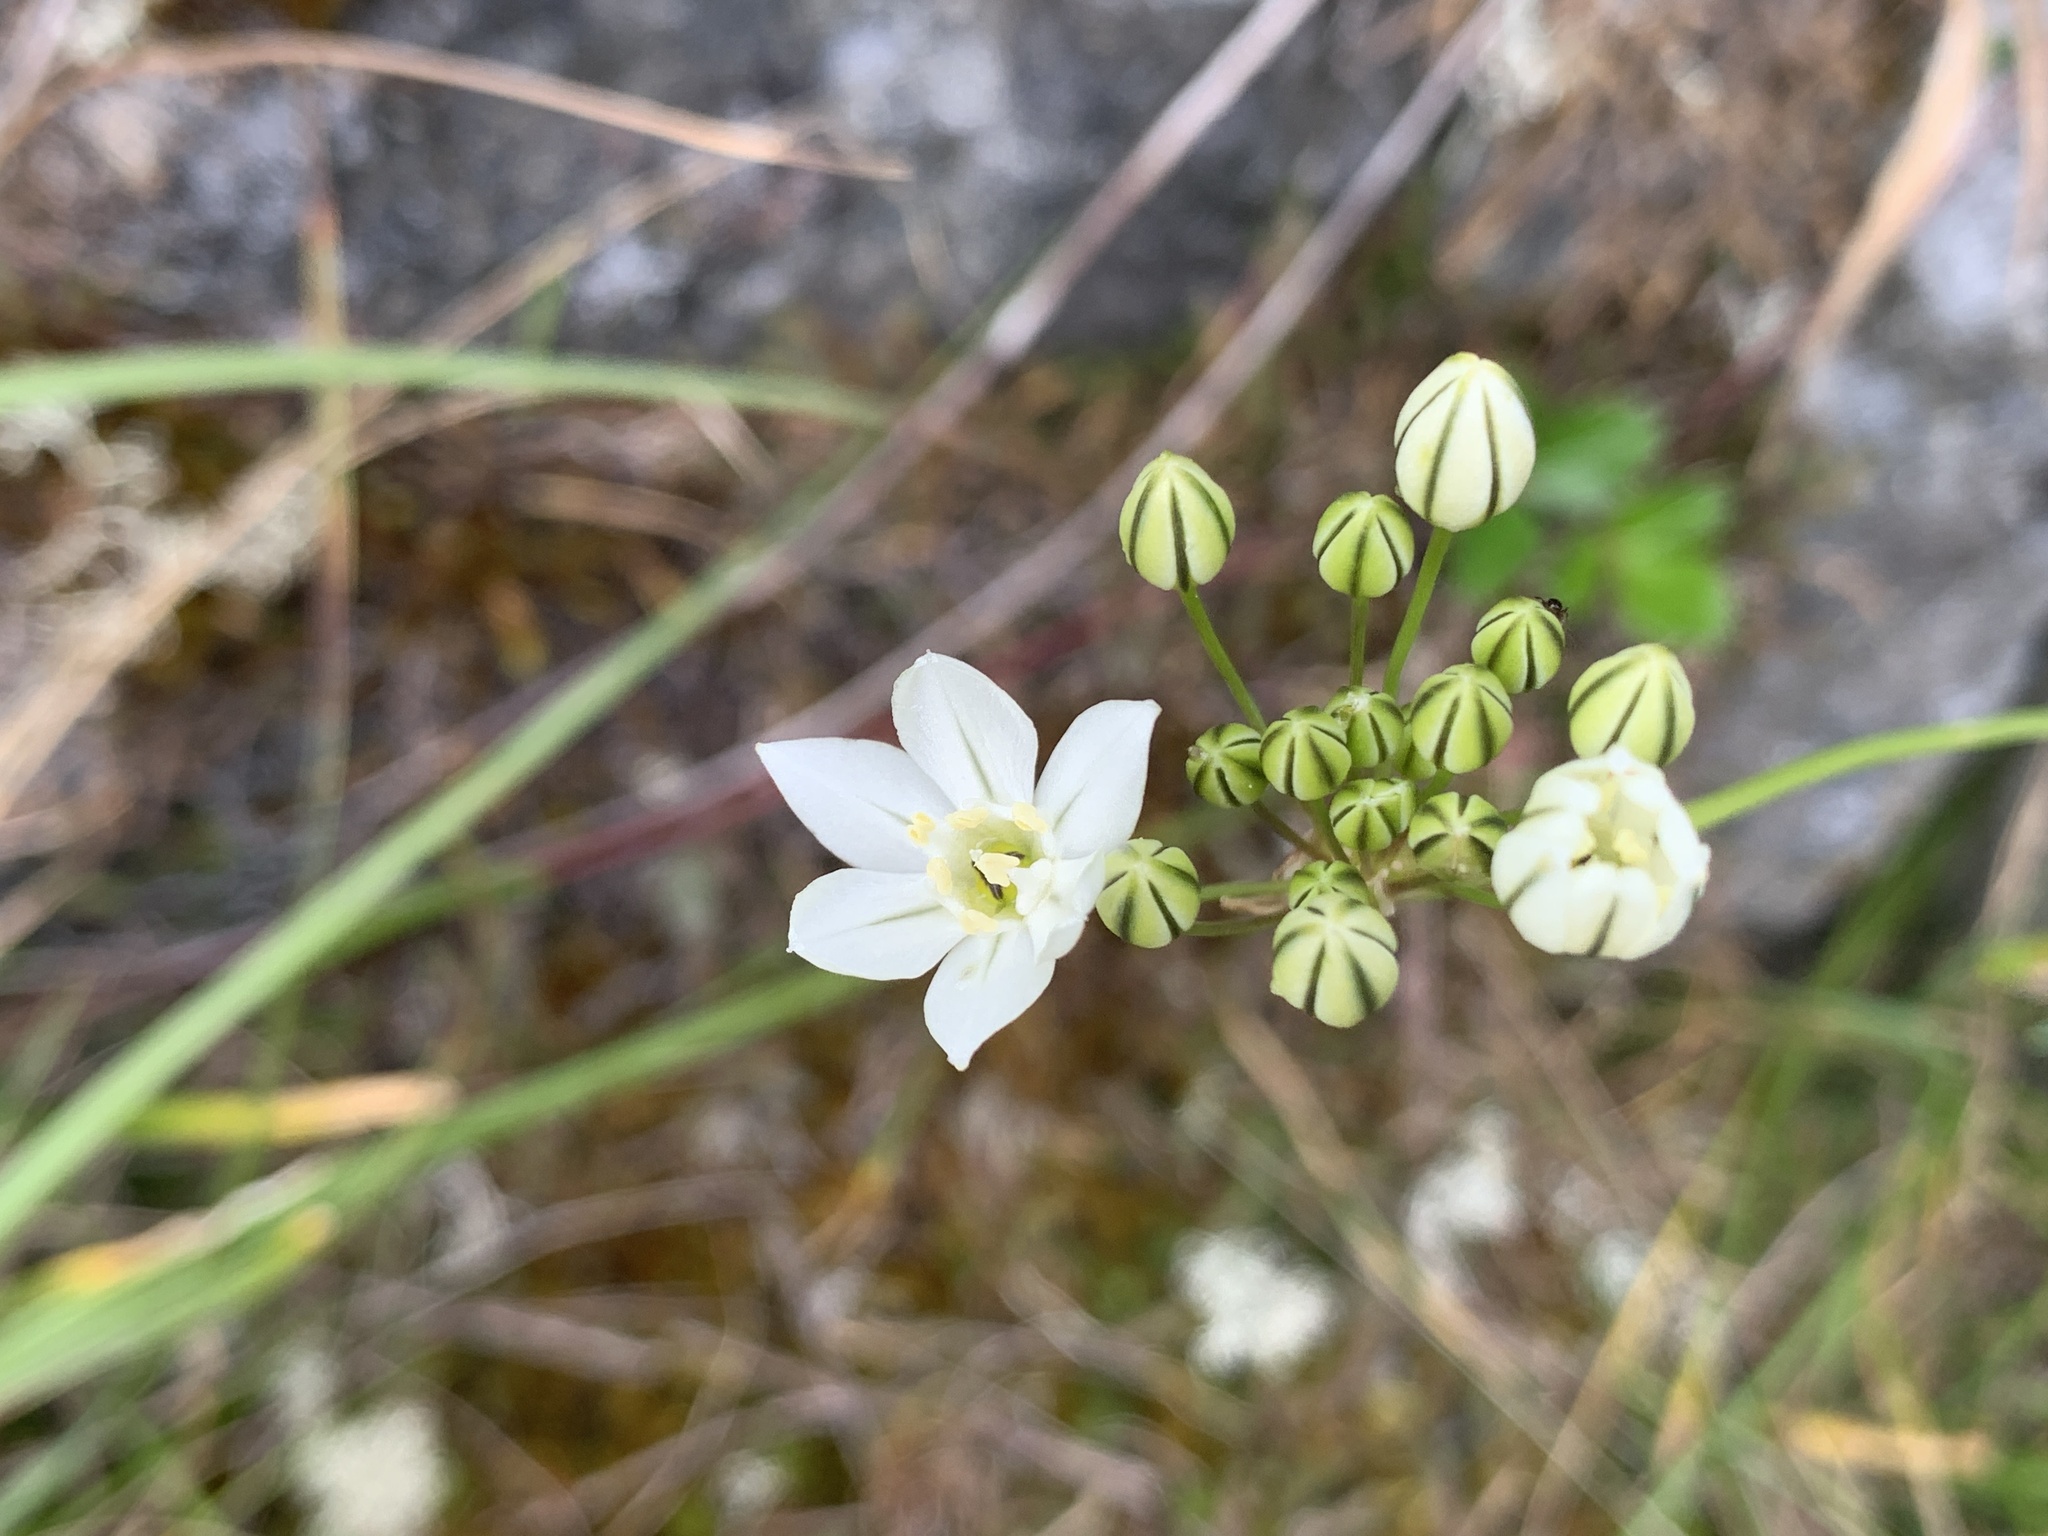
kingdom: Plantae
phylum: Tracheophyta
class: Liliopsida
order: Asparagales
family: Asparagaceae
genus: Triteleia
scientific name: Triteleia hyacinthina
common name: White brodiaea
